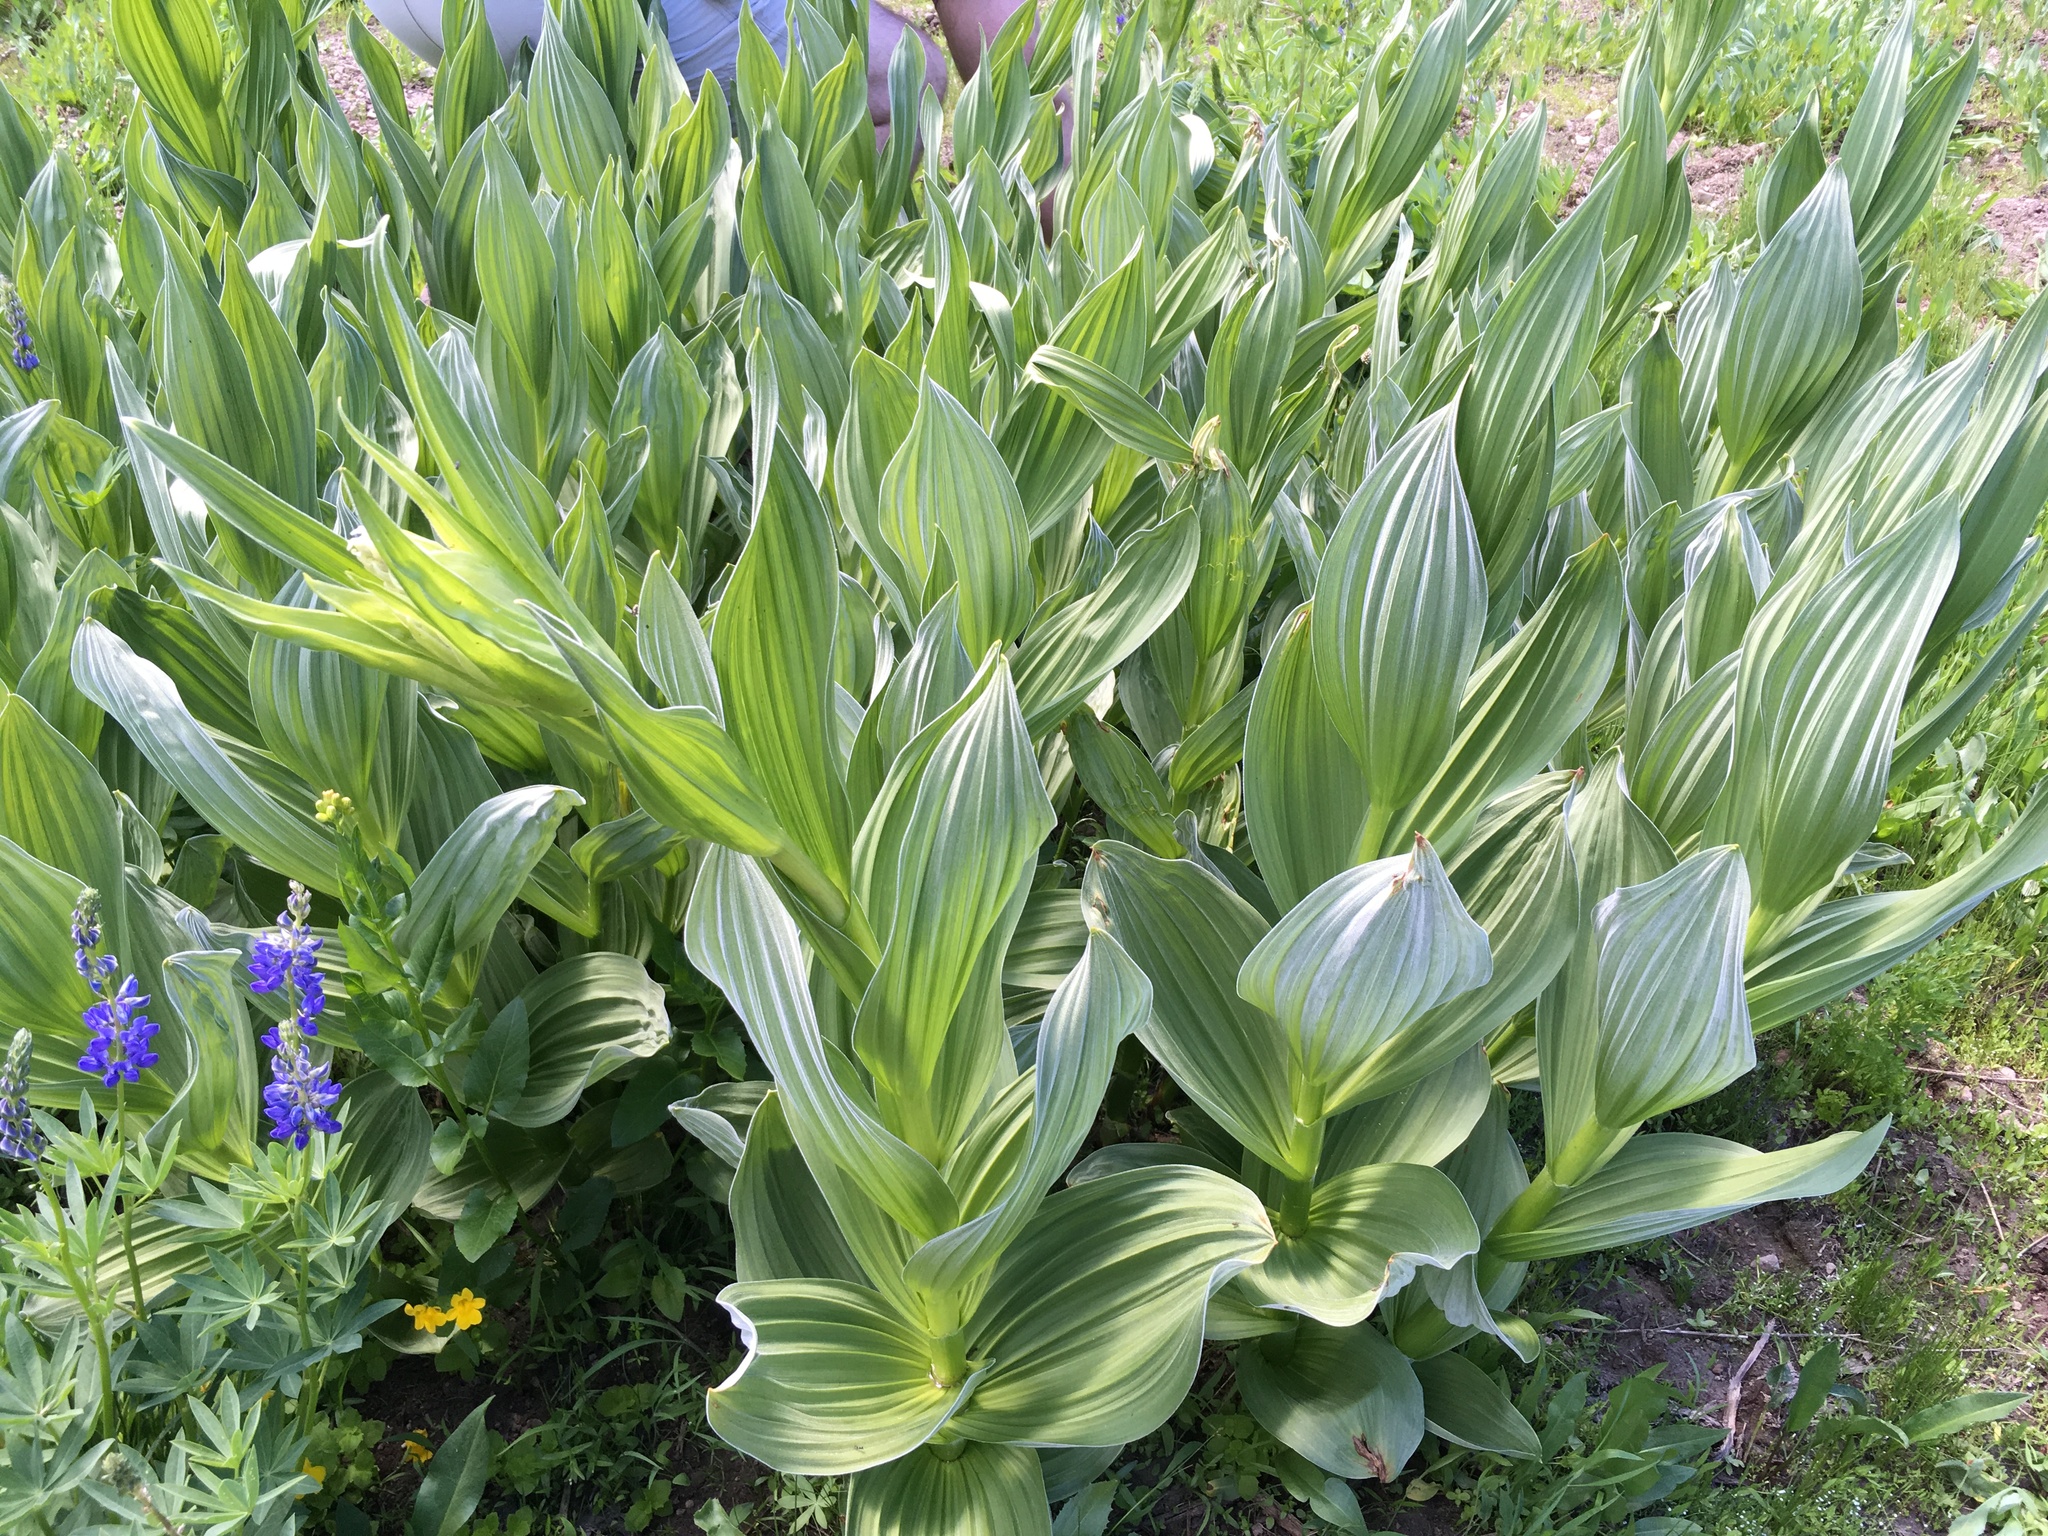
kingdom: Plantae
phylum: Tracheophyta
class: Liliopsida
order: Liliales
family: Melanthiaceae
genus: Veratrum
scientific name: Veratrum californicum
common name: California veratrum
